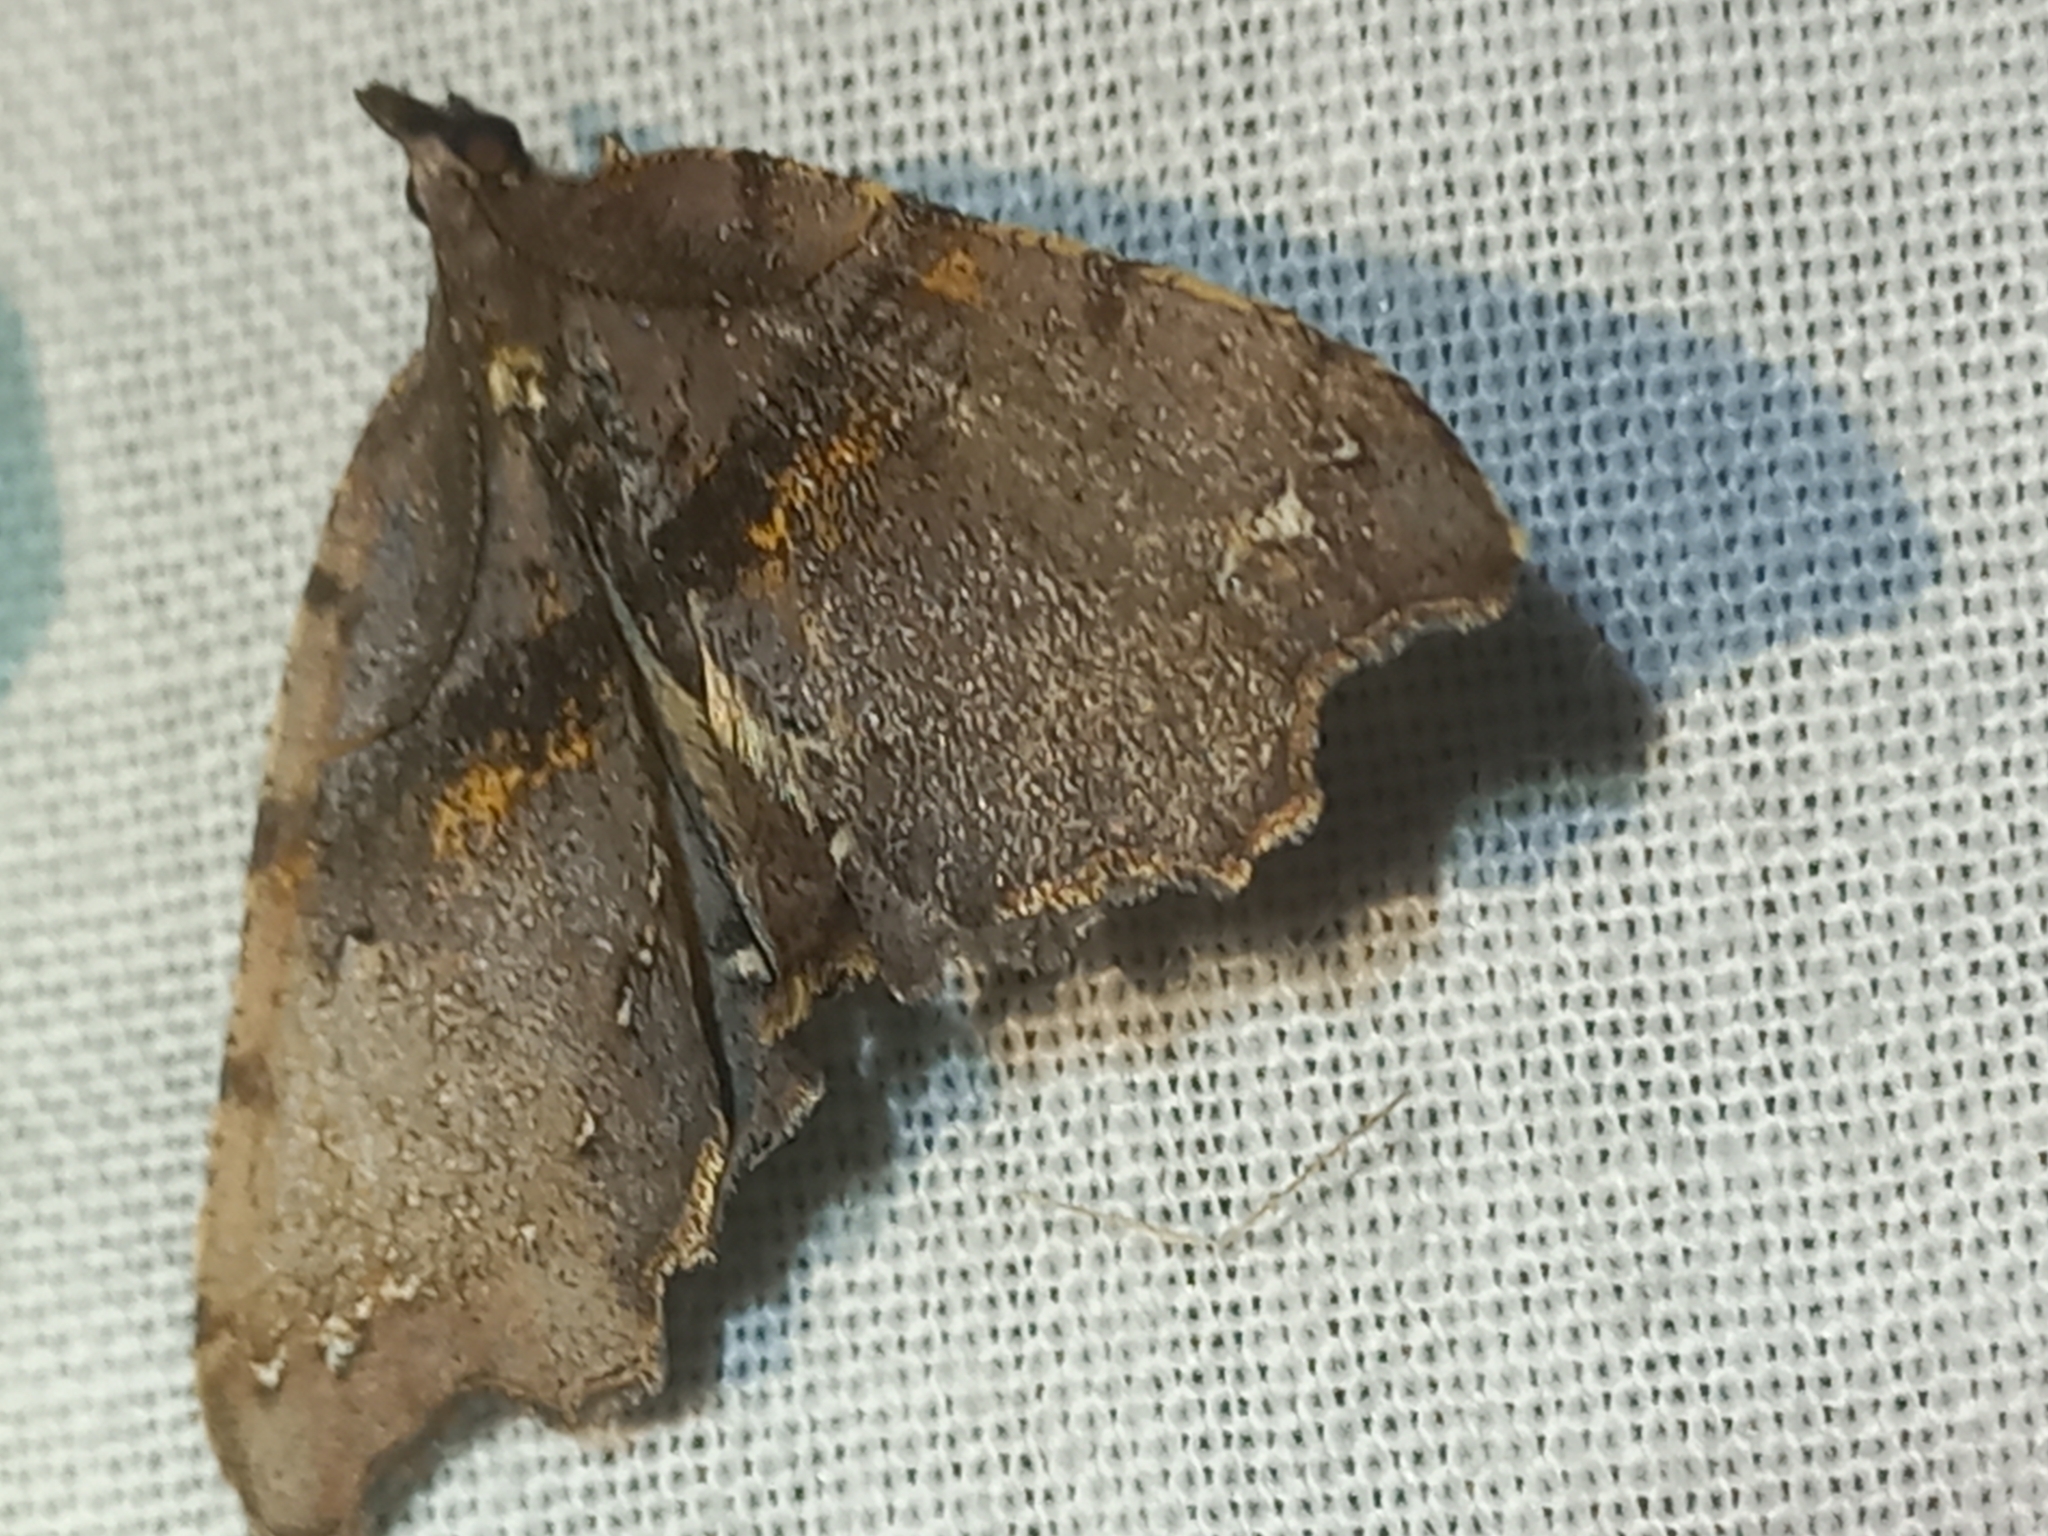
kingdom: Animalia
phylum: Arthropoda
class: Insecta
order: Lepidoptera
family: Geometridae
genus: Chalastra
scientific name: Chalastra pellurgata
